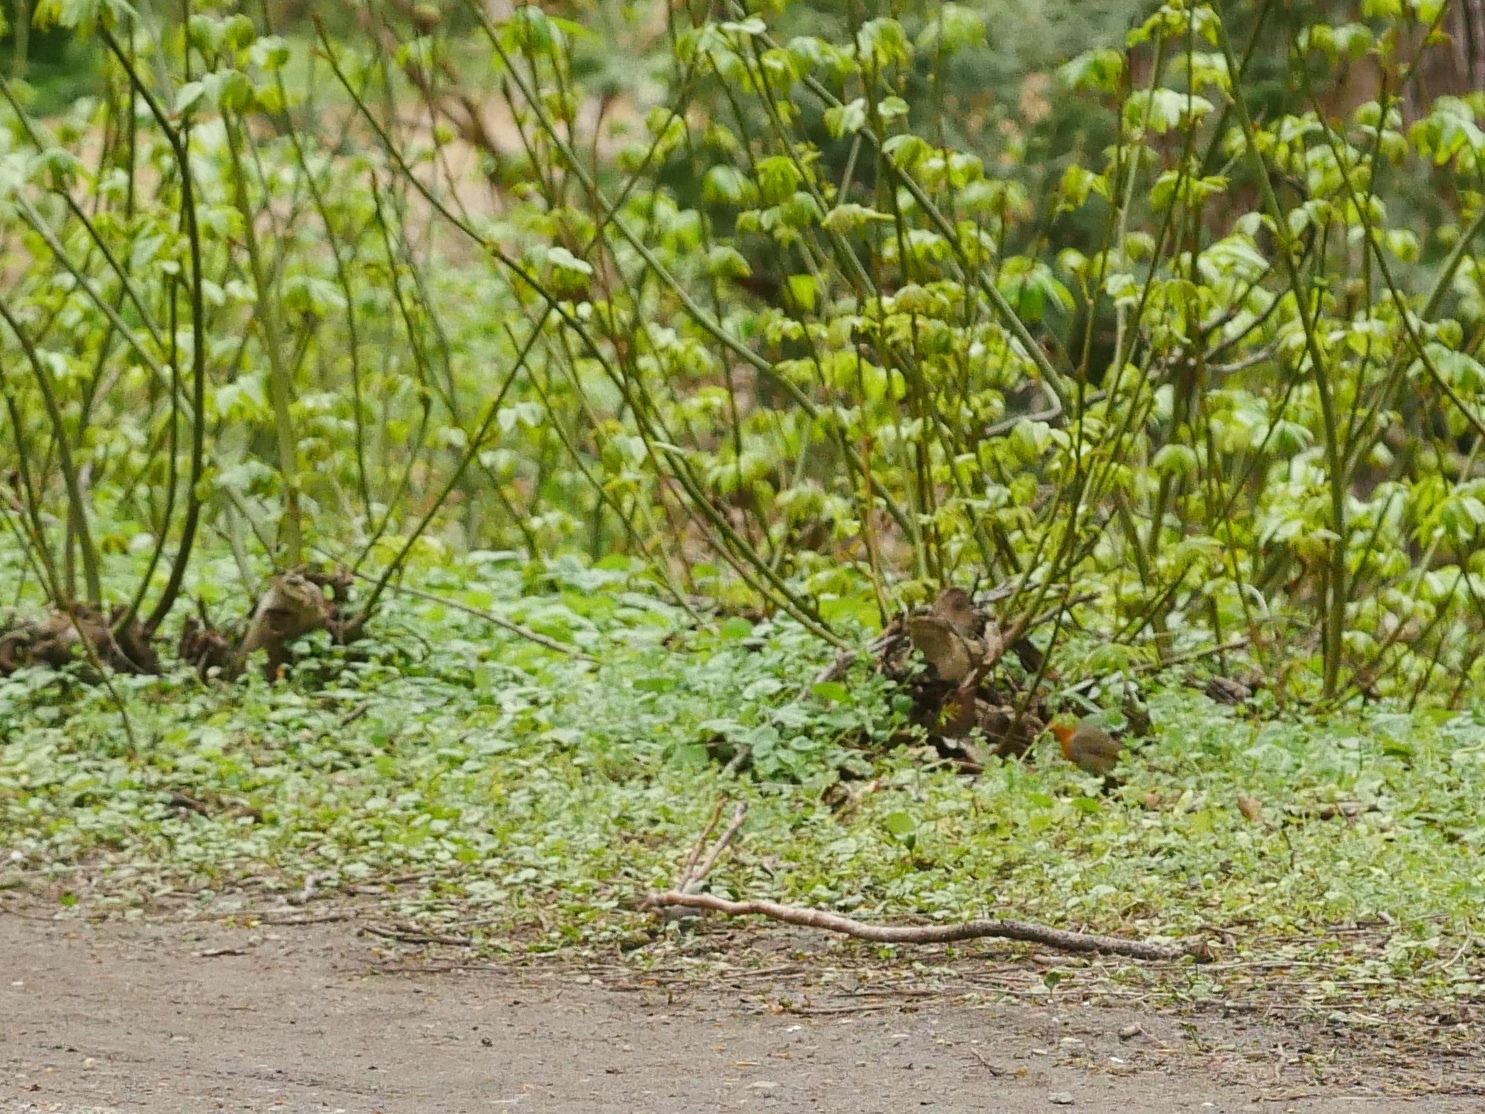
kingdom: Animalia
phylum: Chordata
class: Aves
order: Passeriformes
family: Muscicapidae
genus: Erithacus
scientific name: Erithacus rubecula
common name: European robin
